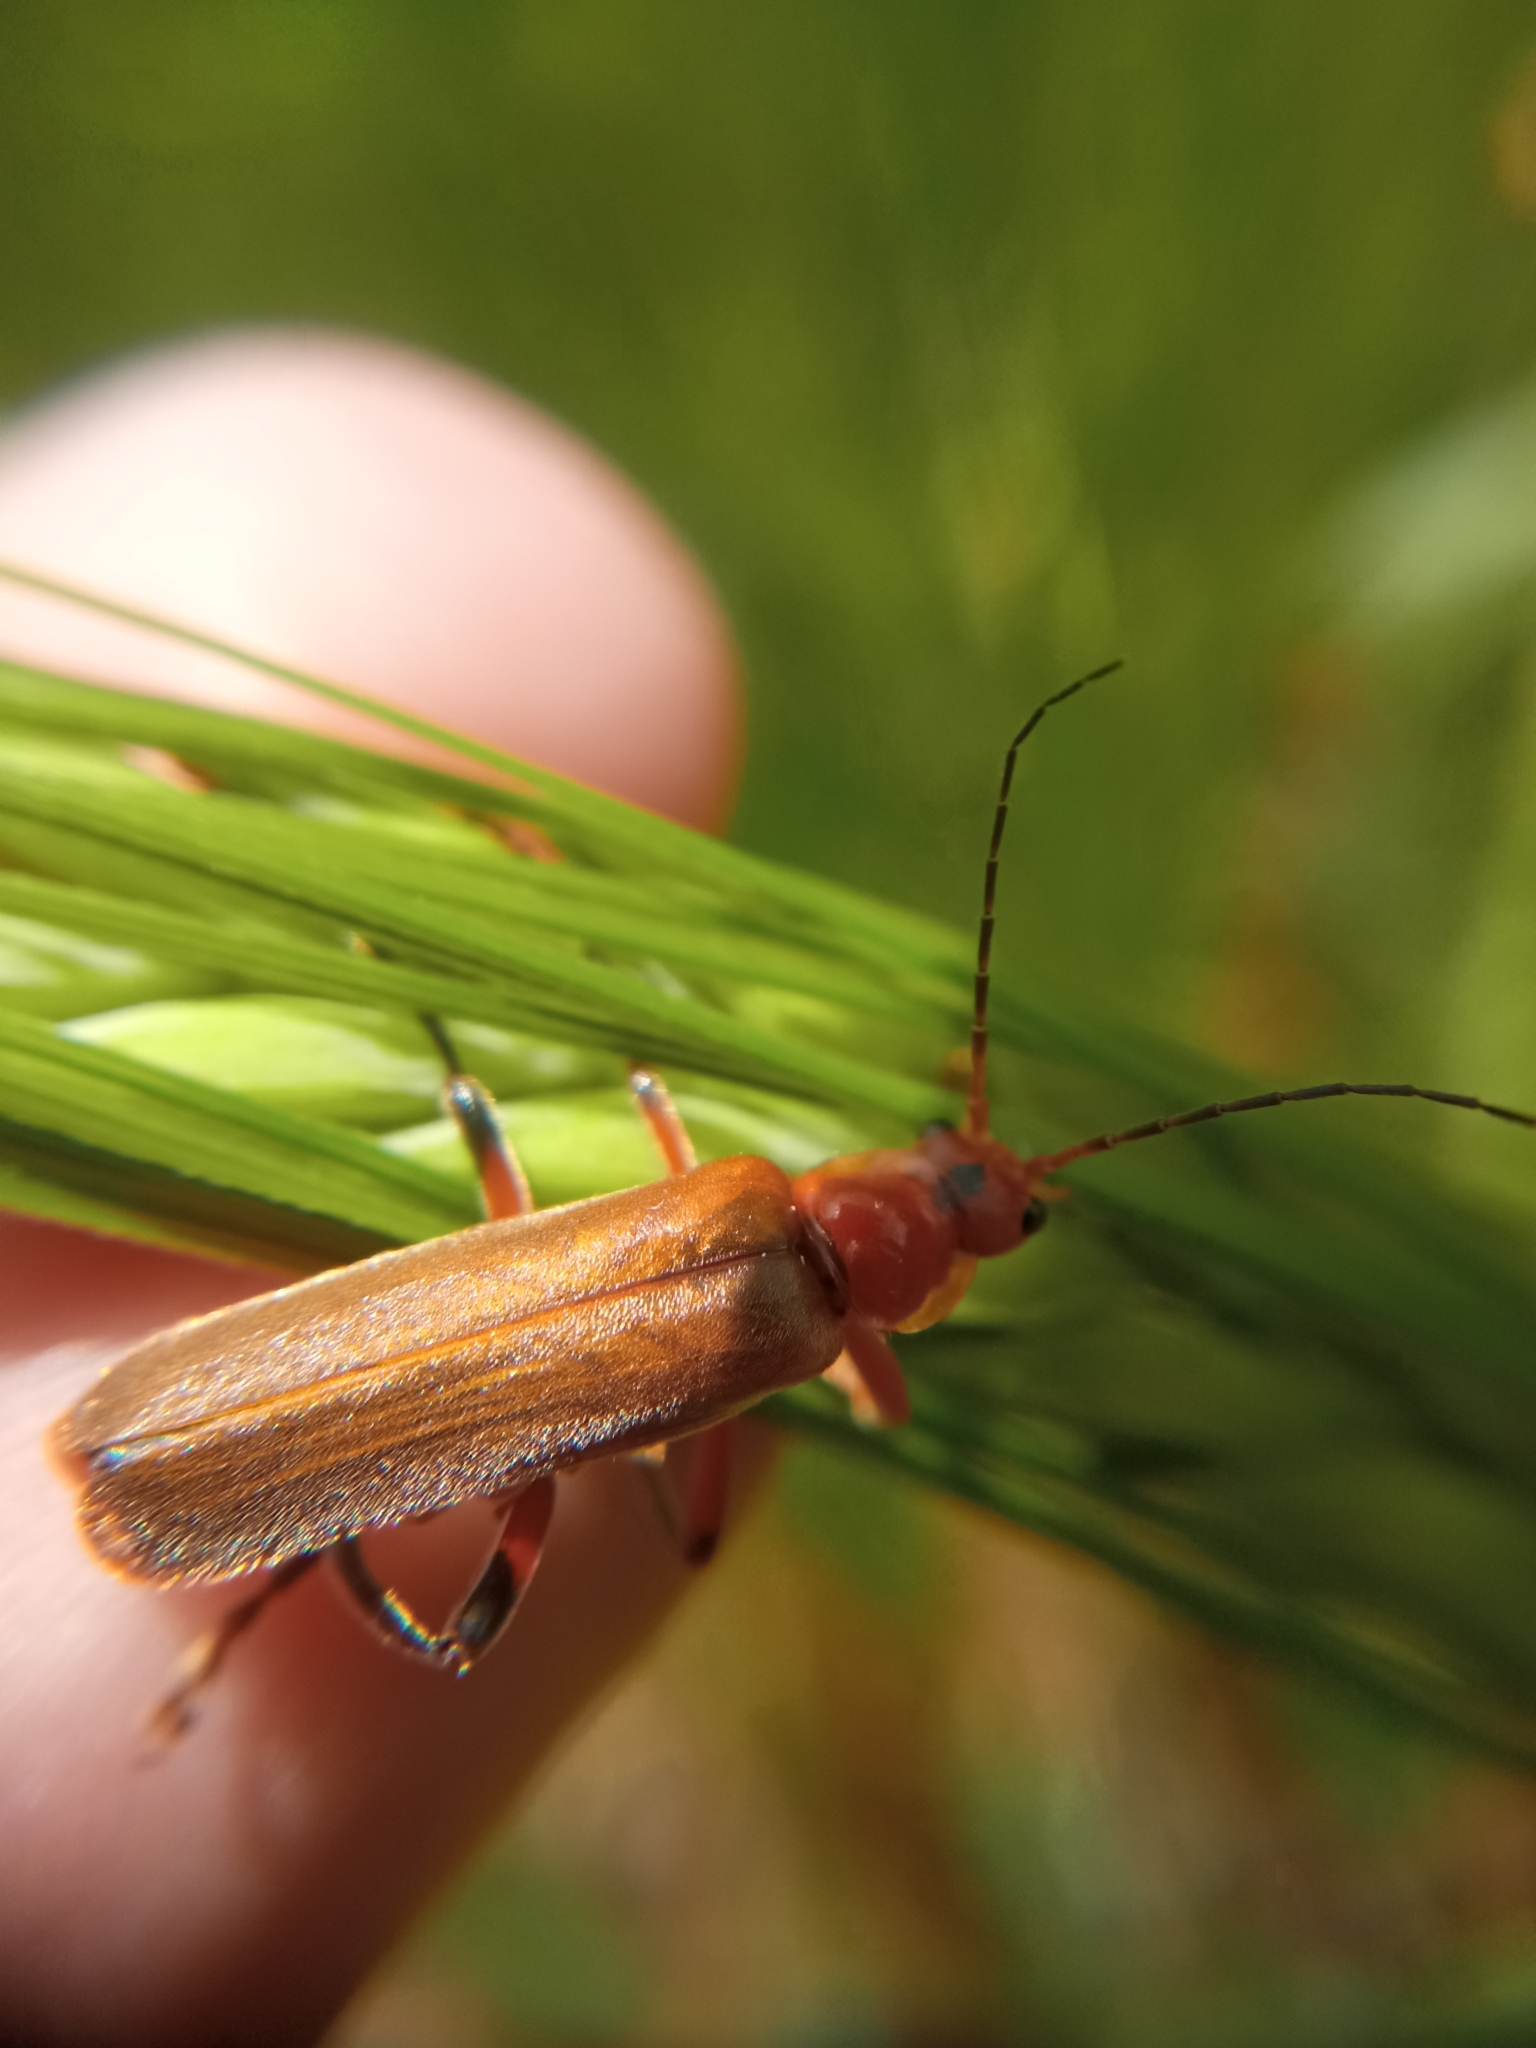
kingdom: Animalia
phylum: Arthropoda
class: Insecta
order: Coleoptera
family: Cantharidae
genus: Cantharis
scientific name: Cantharis livida
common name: Livid soldier beetle
